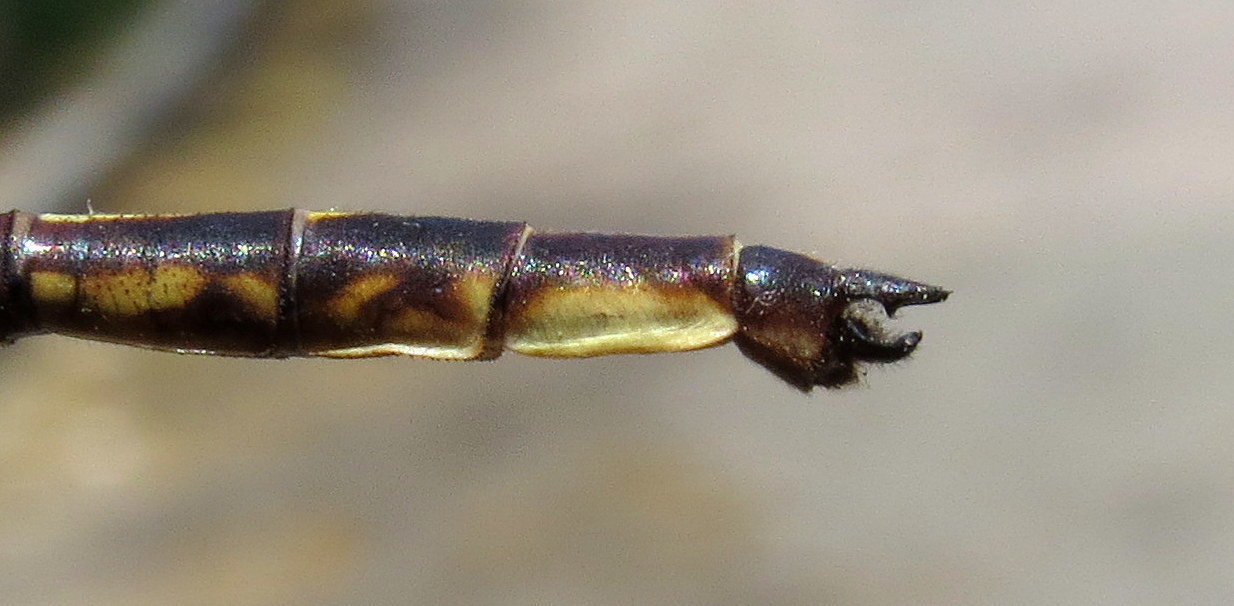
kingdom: Animalia
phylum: Arthropoda
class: Insecta
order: Odonata
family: Gomphidae
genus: Phanogomphus
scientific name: Phanogomphus spicatus
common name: Dusky clubtail
